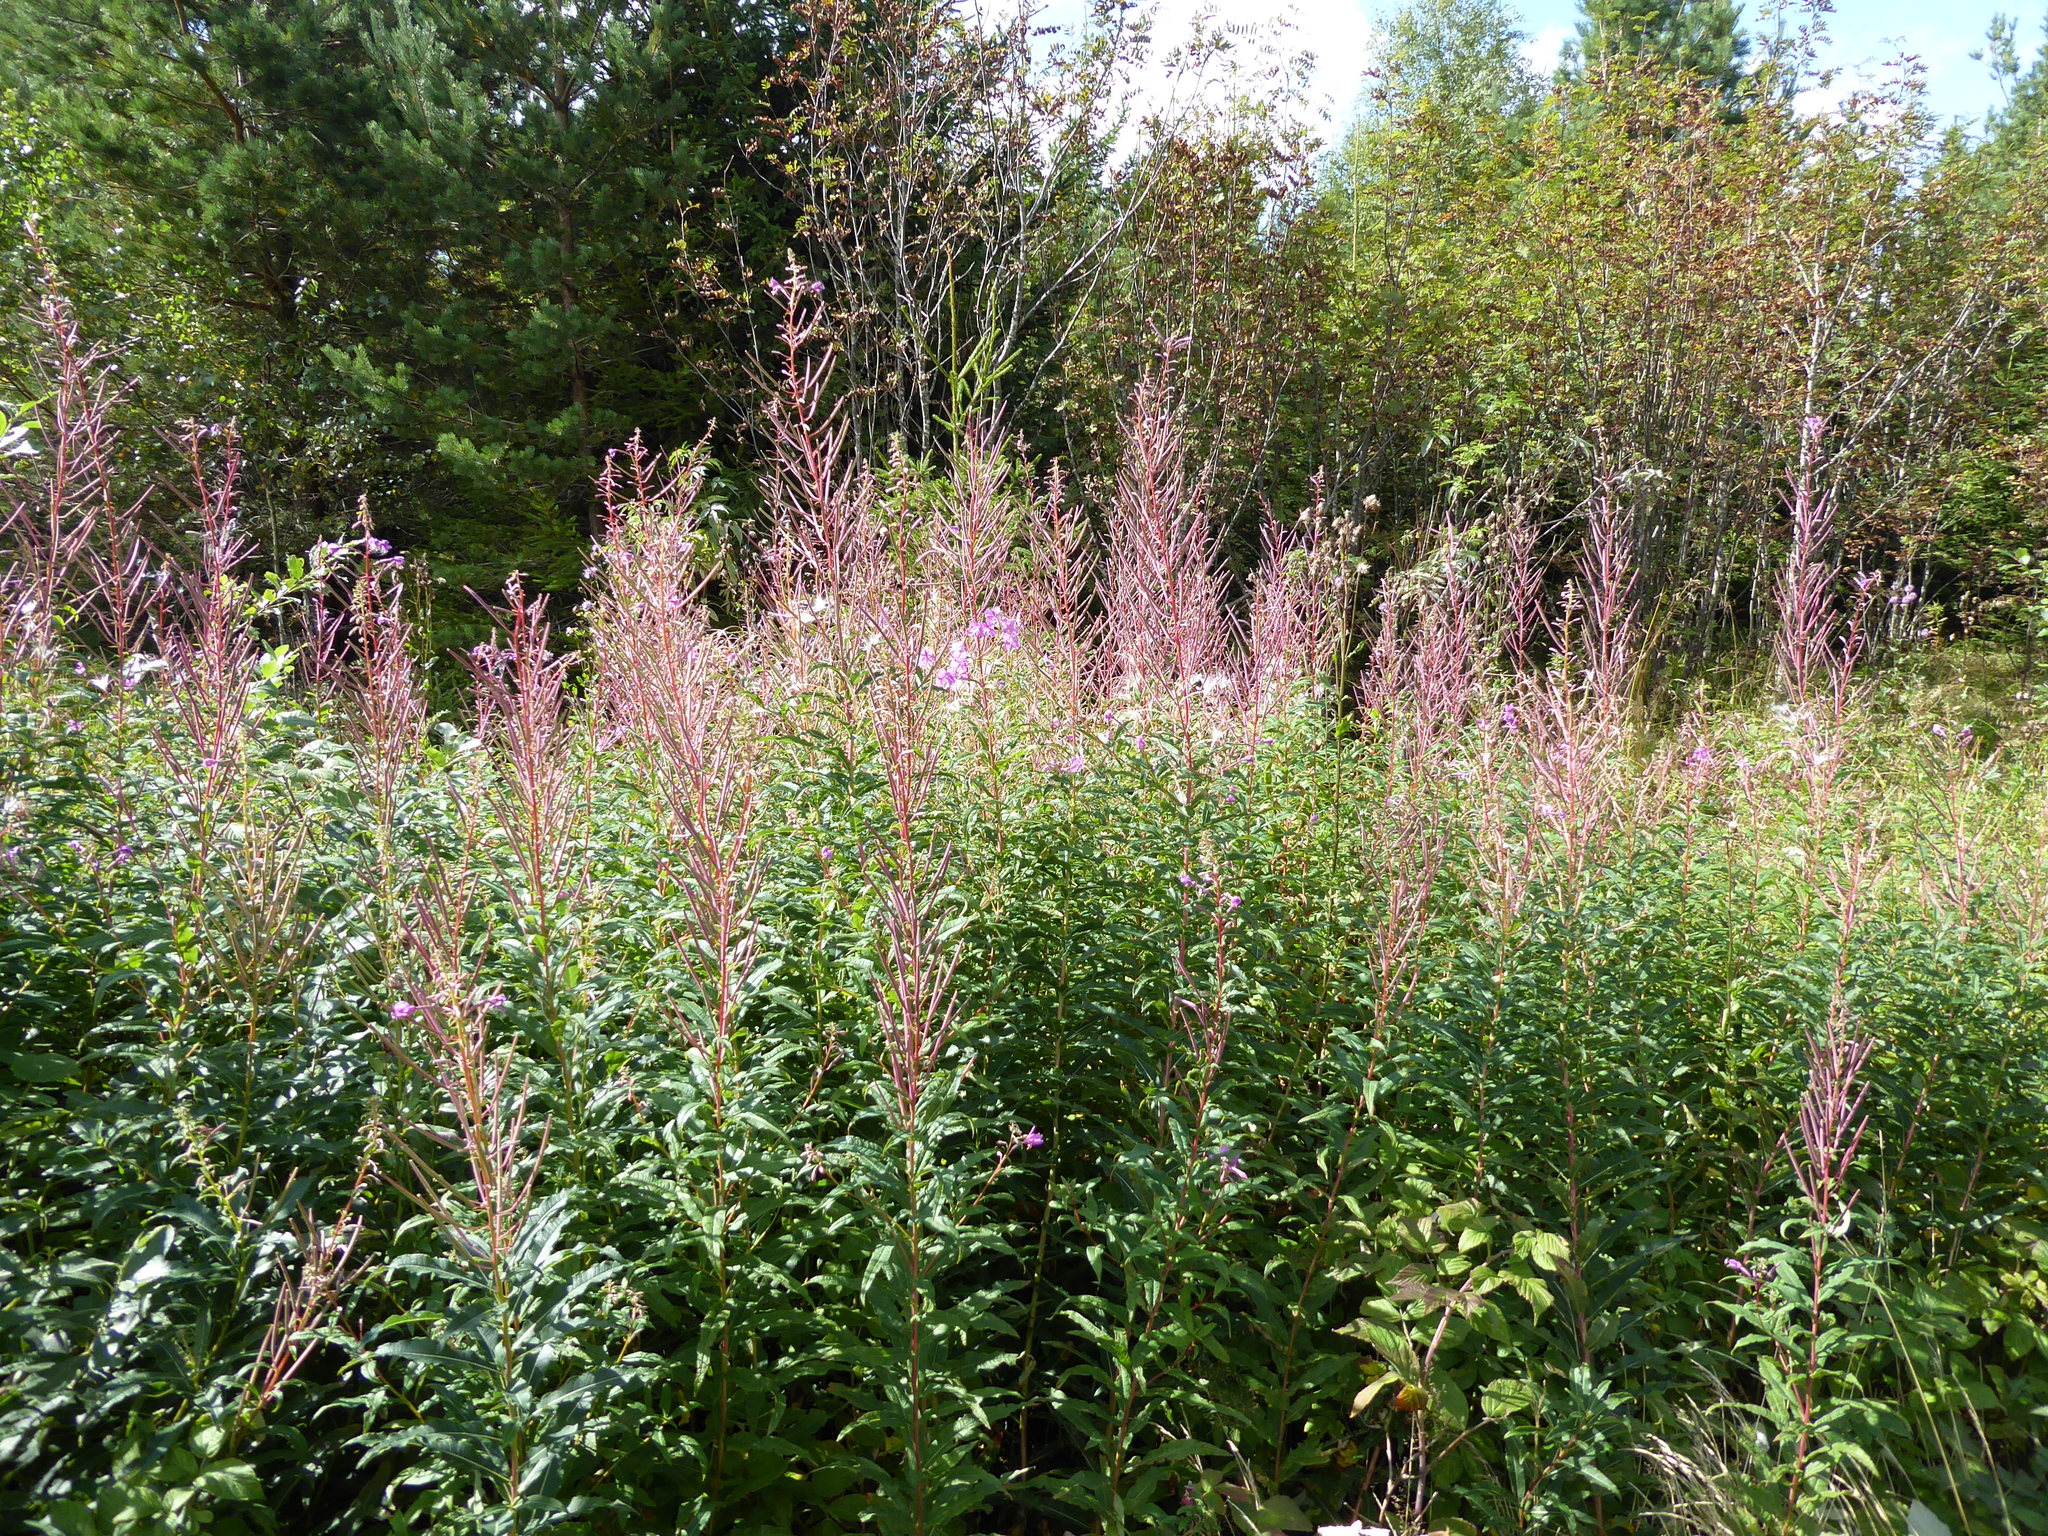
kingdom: Plantae
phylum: Tracheophyta
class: Magnoliopsida
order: Myrtales
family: Onagraceae
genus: Chamaenerion
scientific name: Chamaenerion angustifolium
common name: Fireweed
